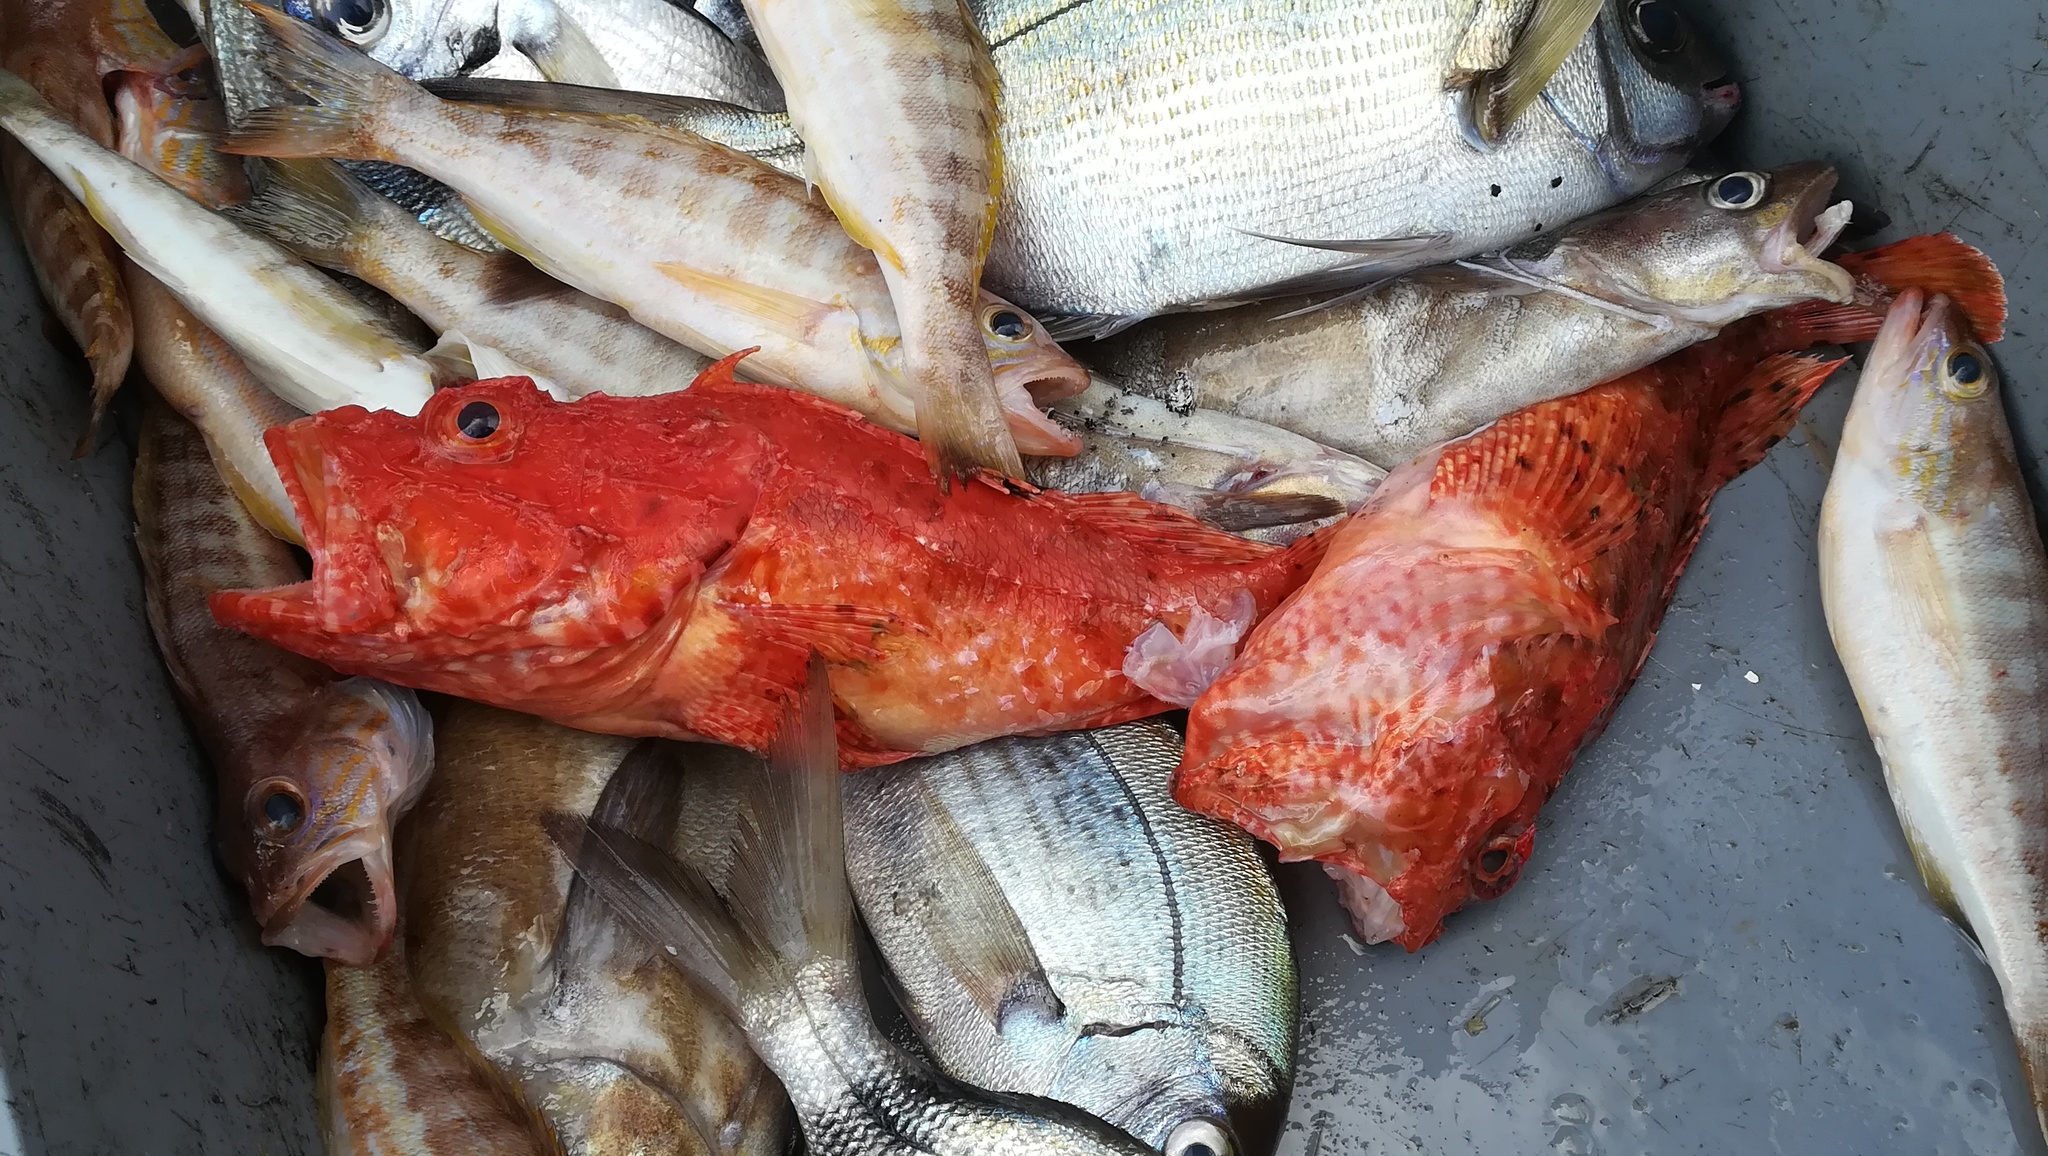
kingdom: Animalia
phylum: Chordata
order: Scorpaeniformes
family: Scorpaenidae
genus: Scorpaena
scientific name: Scorpaena scrofa
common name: Red scorpionfish
